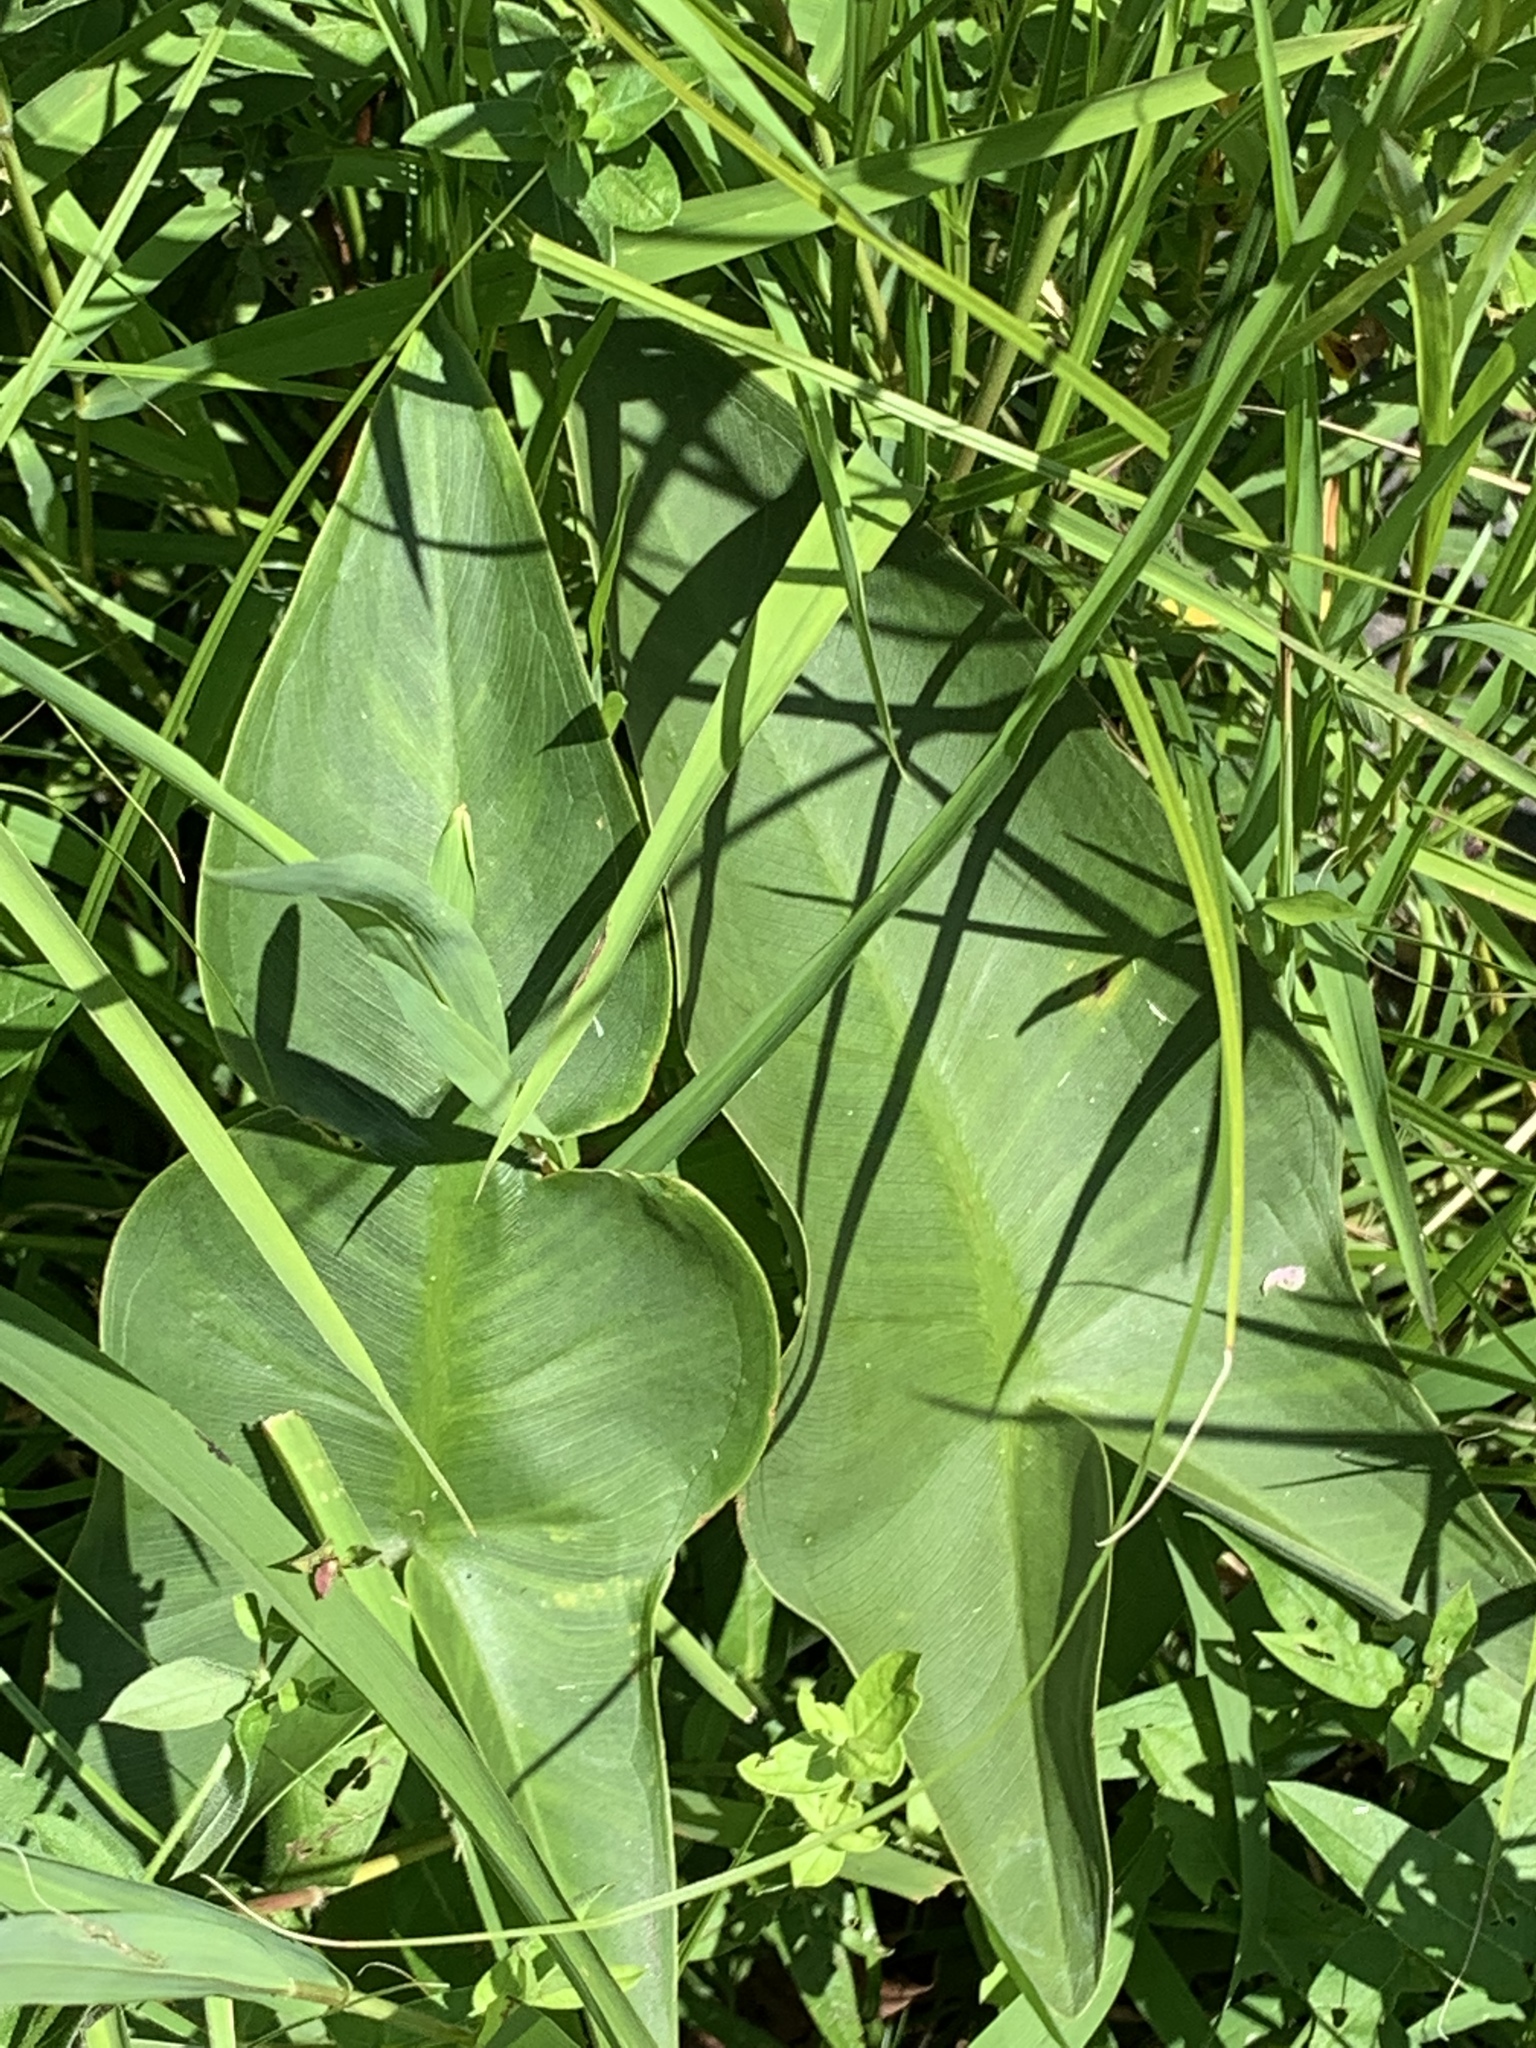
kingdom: Plantae
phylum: Tracheophyta
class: Liliopsida
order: Alismatales
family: Araceae
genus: Peltandra
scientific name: Peltandra virginica
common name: Arrow arum
